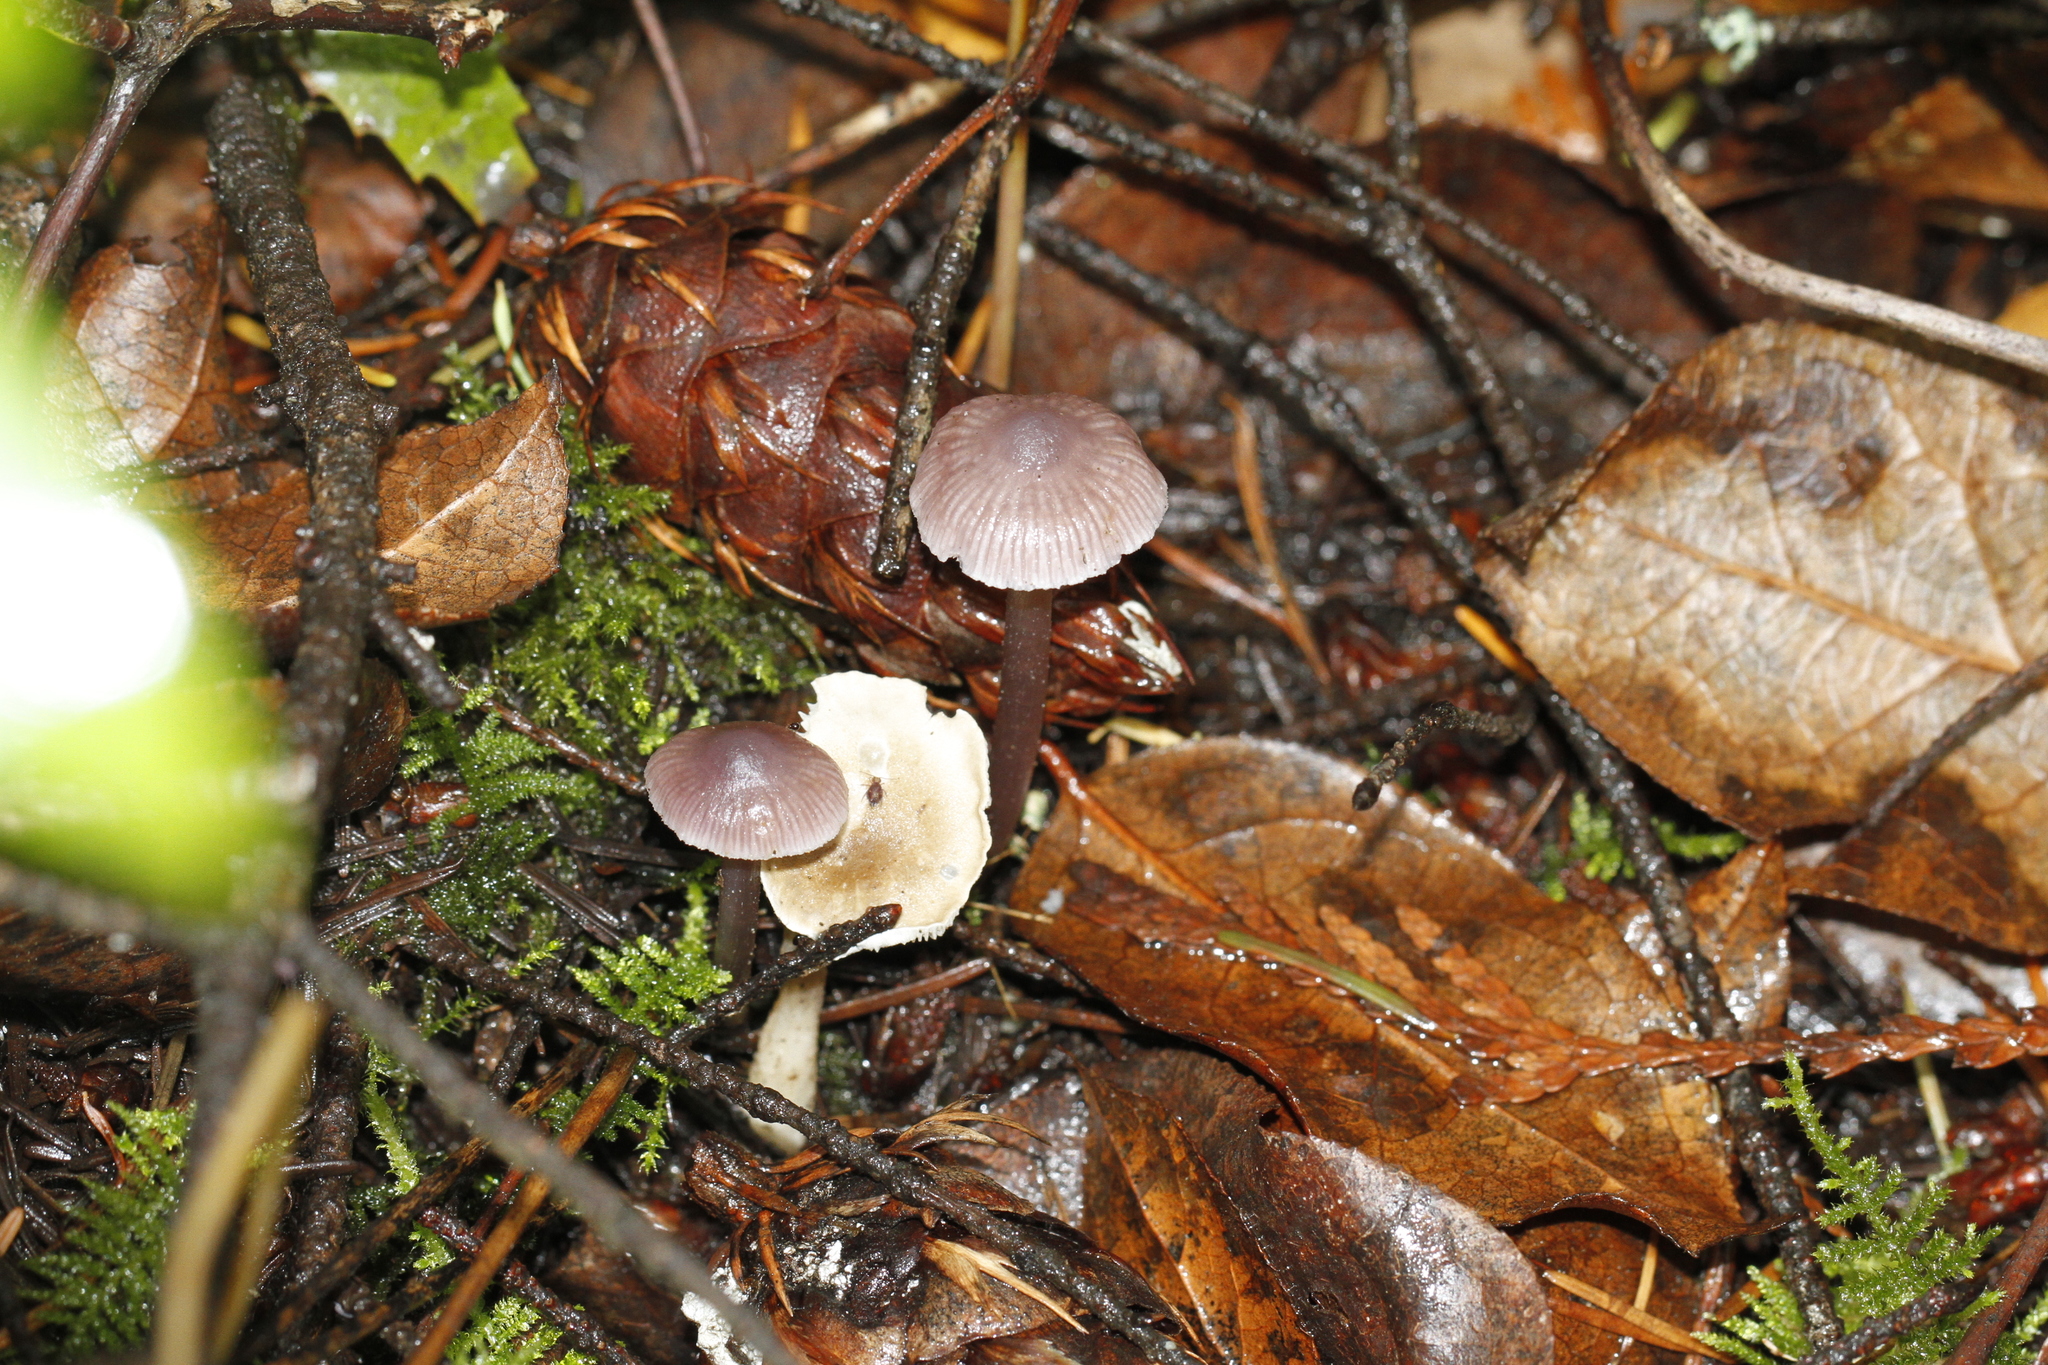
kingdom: Fungi
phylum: Basidiomycota
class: Agaricomycetes
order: Agaricales
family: Mycenaceae
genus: Mycena
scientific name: Mycena pura
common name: Lilac bonnet
